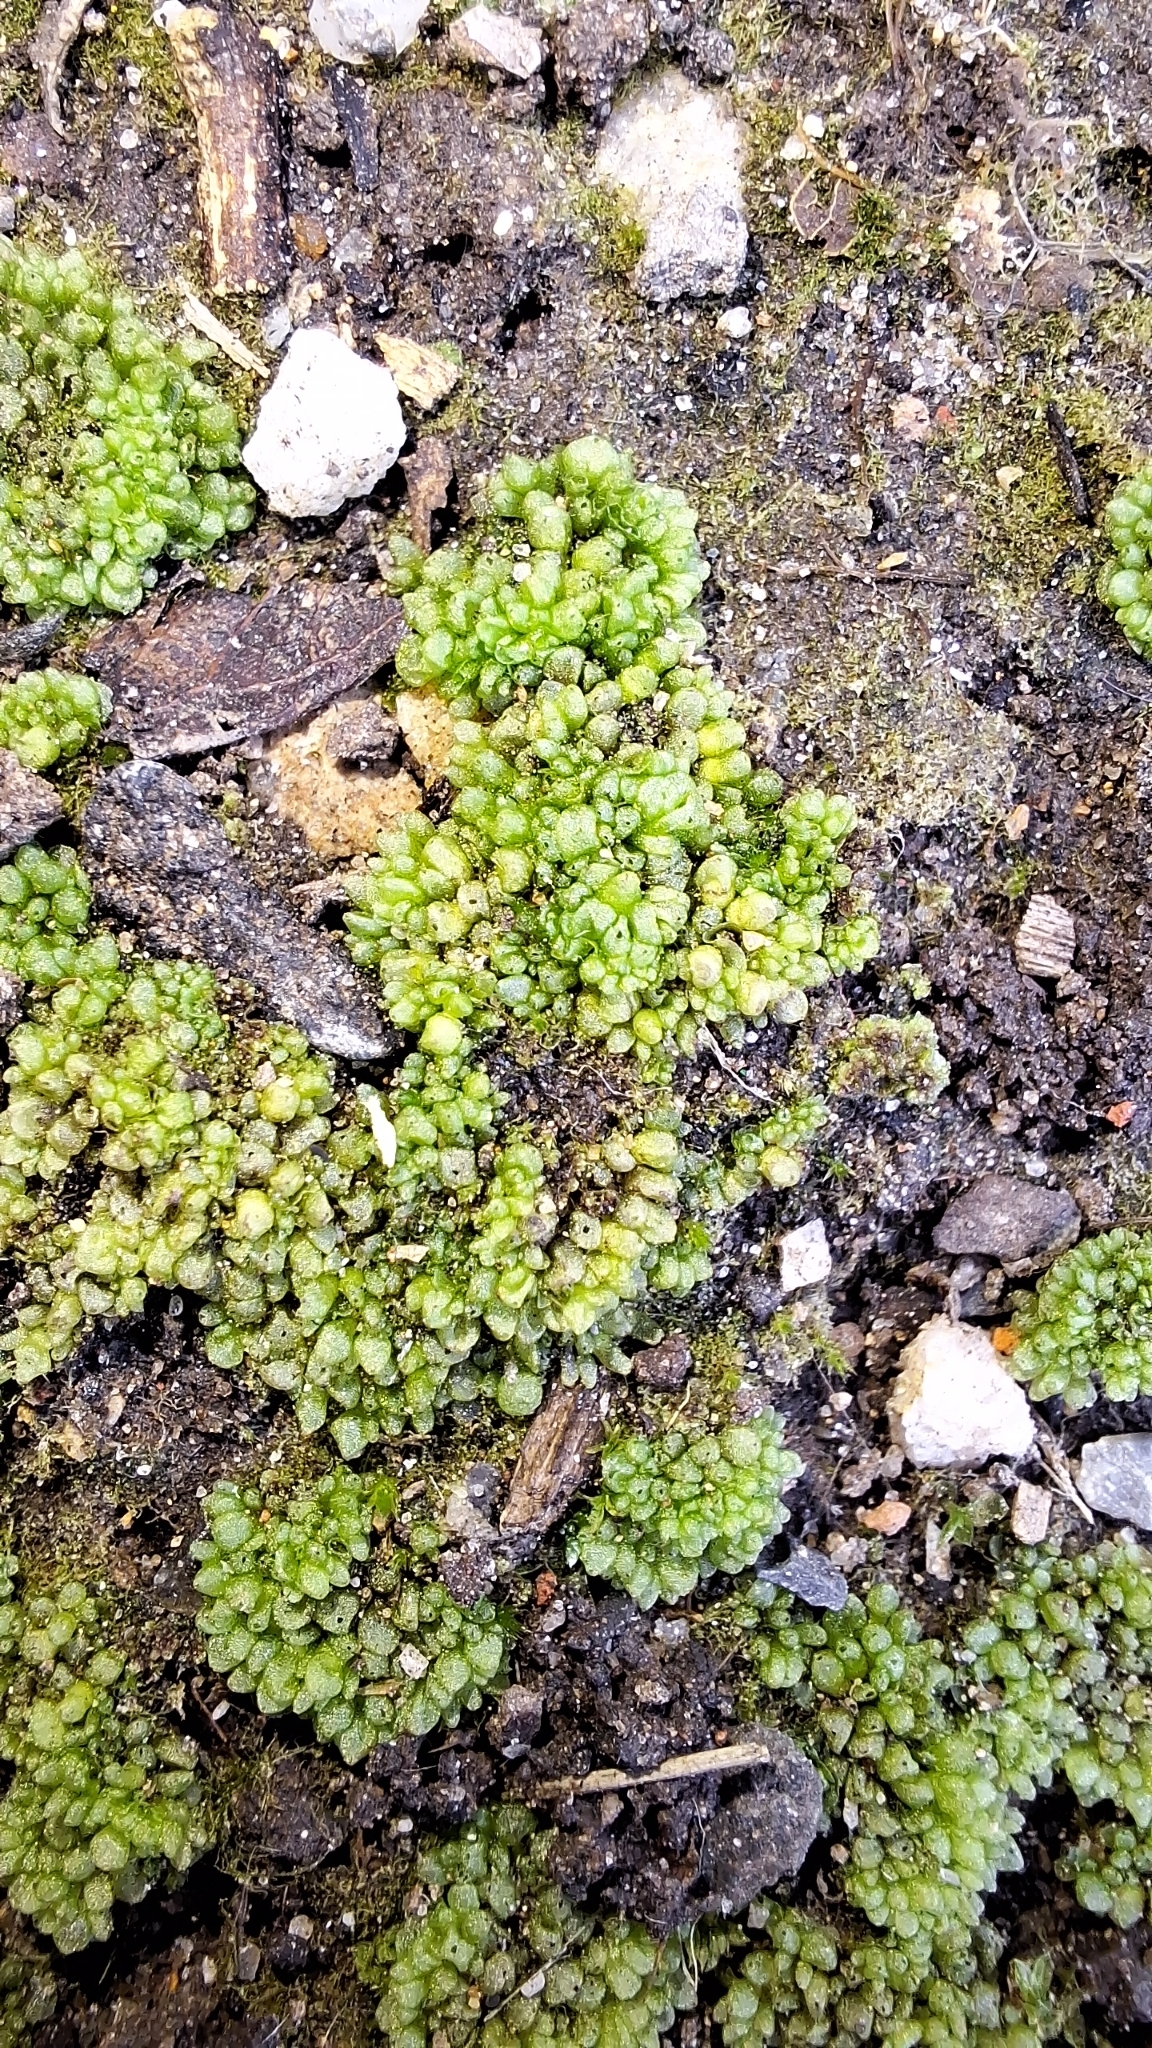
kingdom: Plantae
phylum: Marchantiophyta
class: Marchantiopsida
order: Sphaerocarpales
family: Sphaerocarpaceae
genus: Sphaerocarpos
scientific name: Sphaerocarpos texanus
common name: Texas balloonwort
